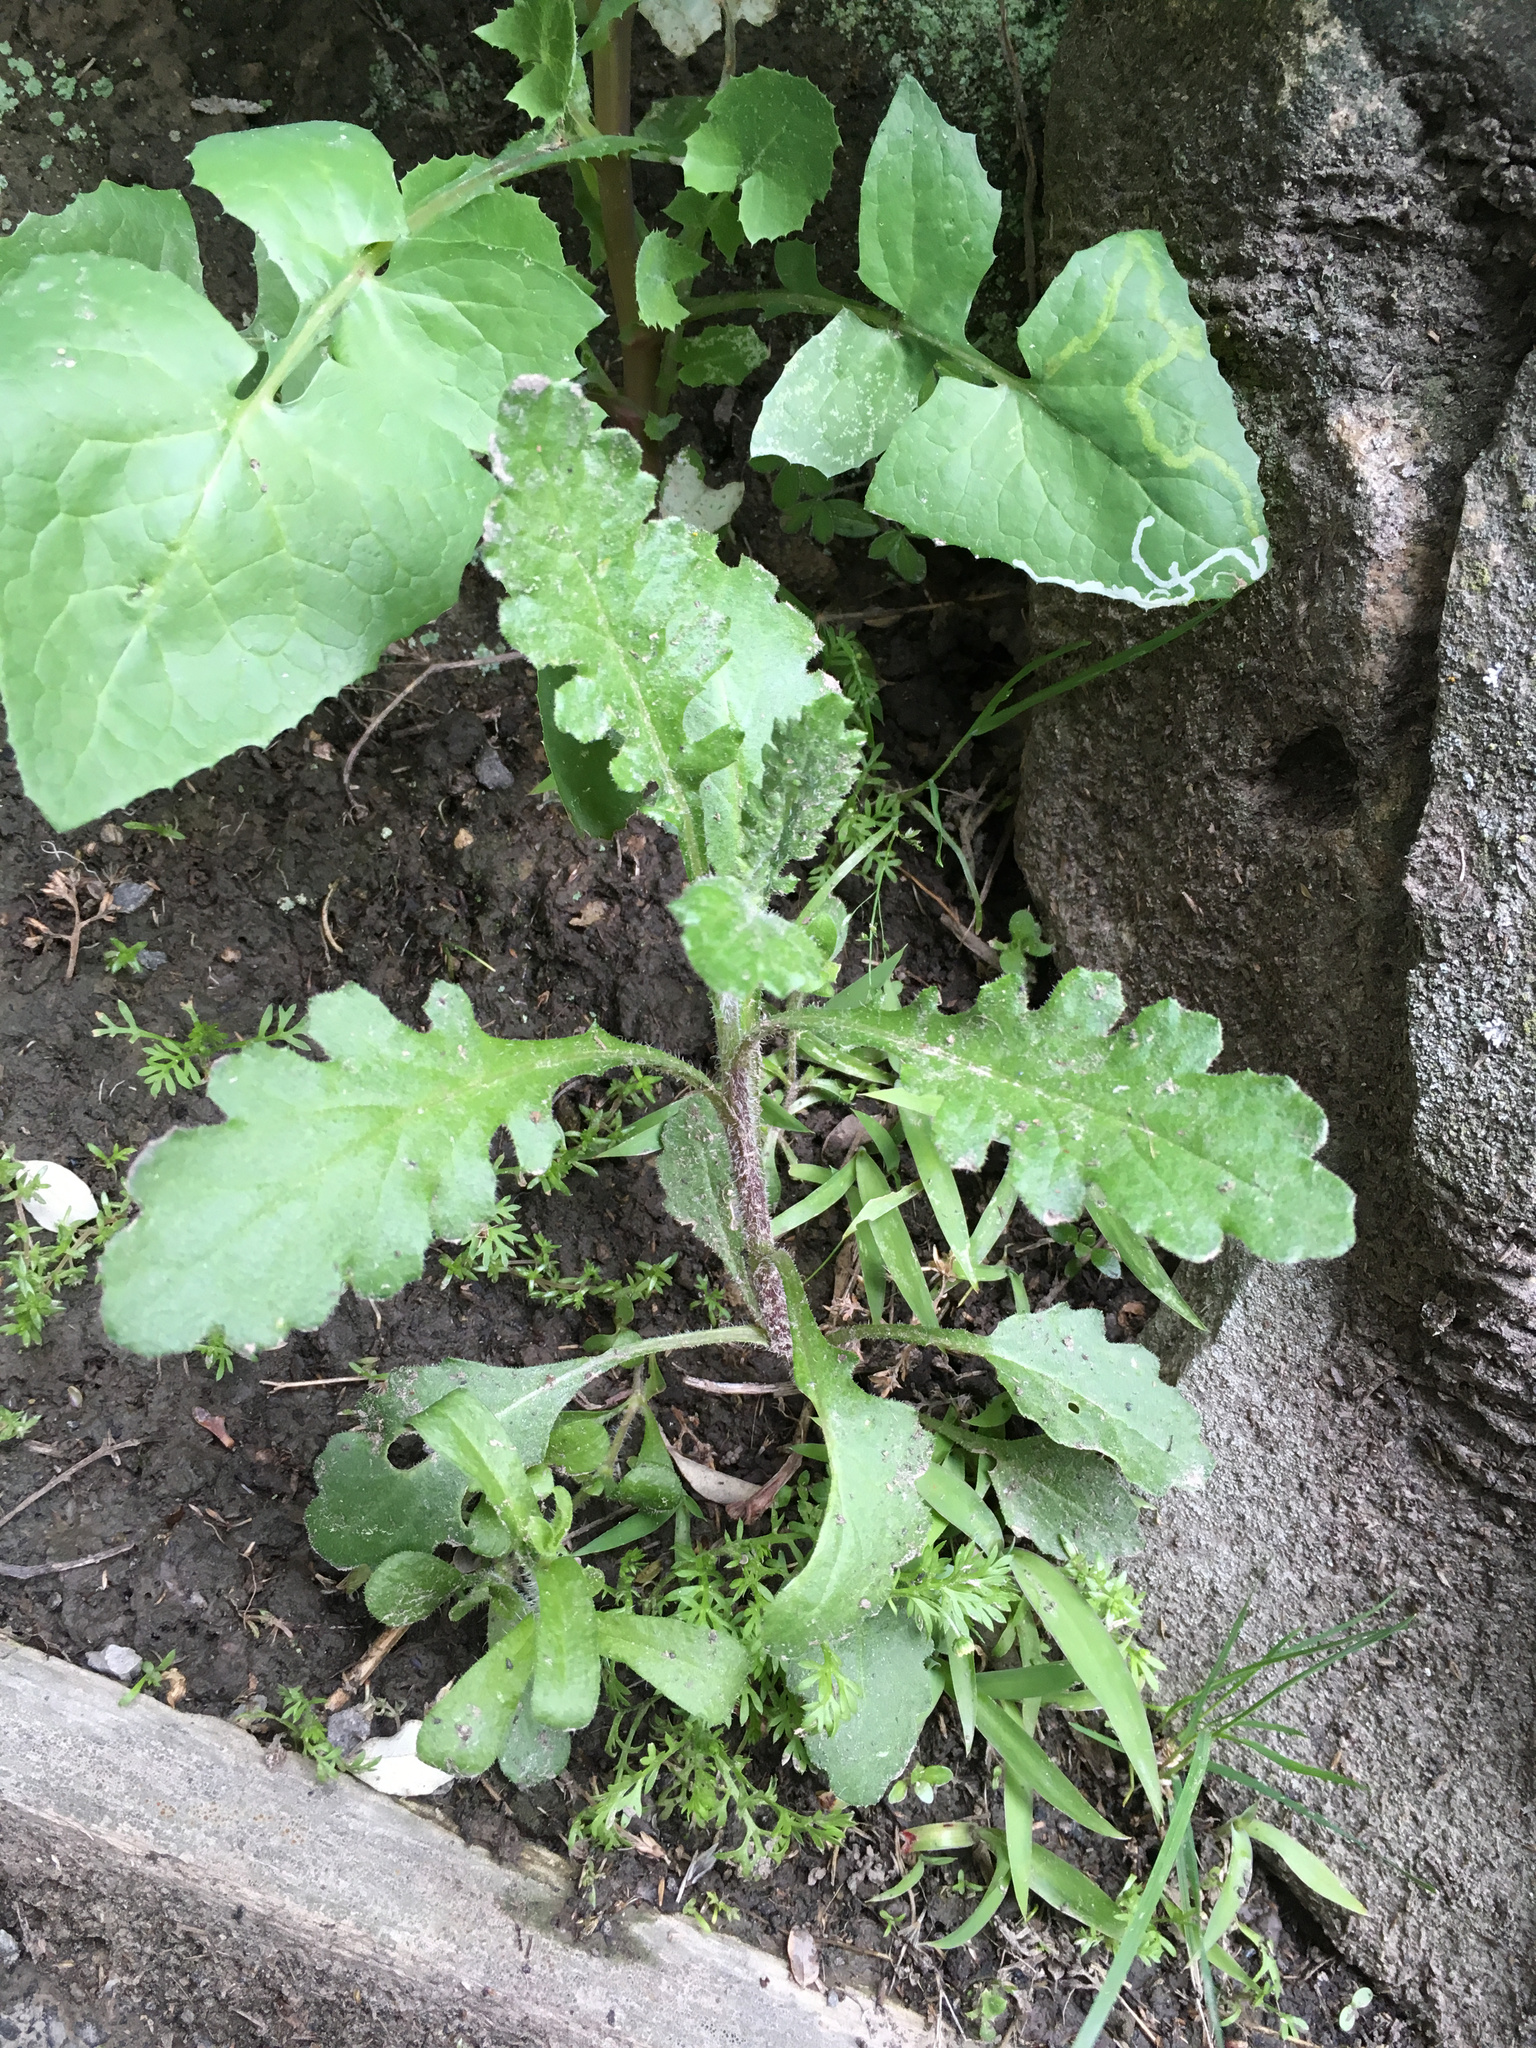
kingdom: Plantae
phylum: Tracheophyta
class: Magnoliopsida
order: Asterales
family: Asteraceae
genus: Senecio
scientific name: Senecio glomeratus
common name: Cutleaf burnweed
